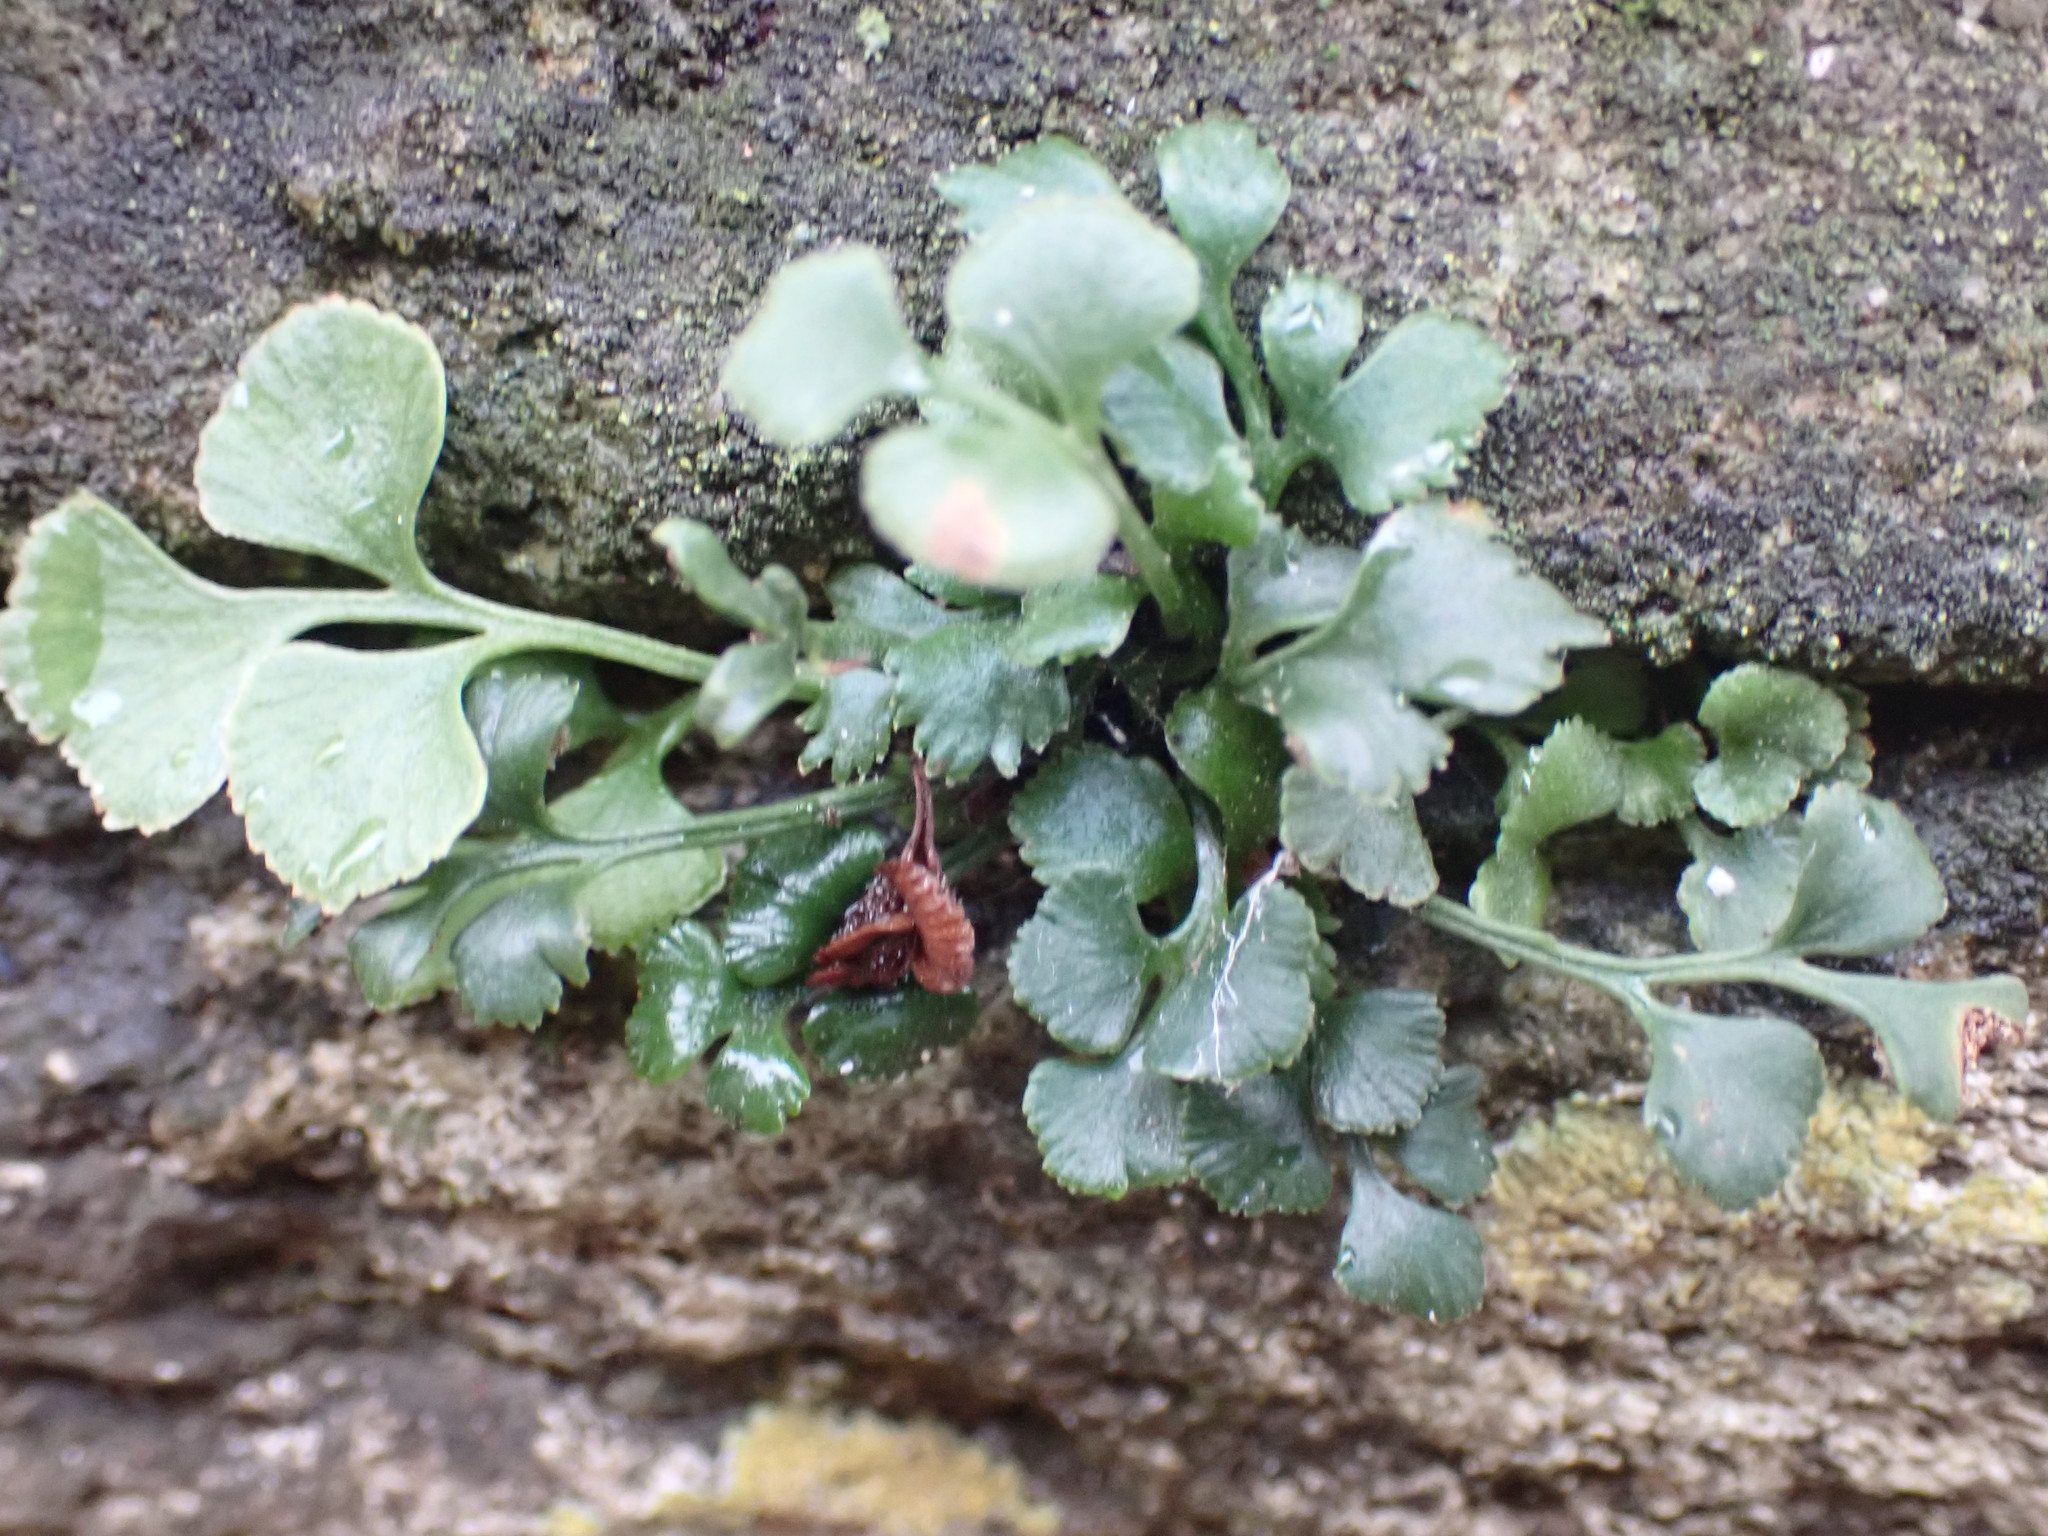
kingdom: Plantae
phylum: Tracheophyta
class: Polypodiopsida
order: Polypodiales
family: Aspleniaceae
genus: Asplenium
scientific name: Asplenium ruta-muraria
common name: Wall-rue
